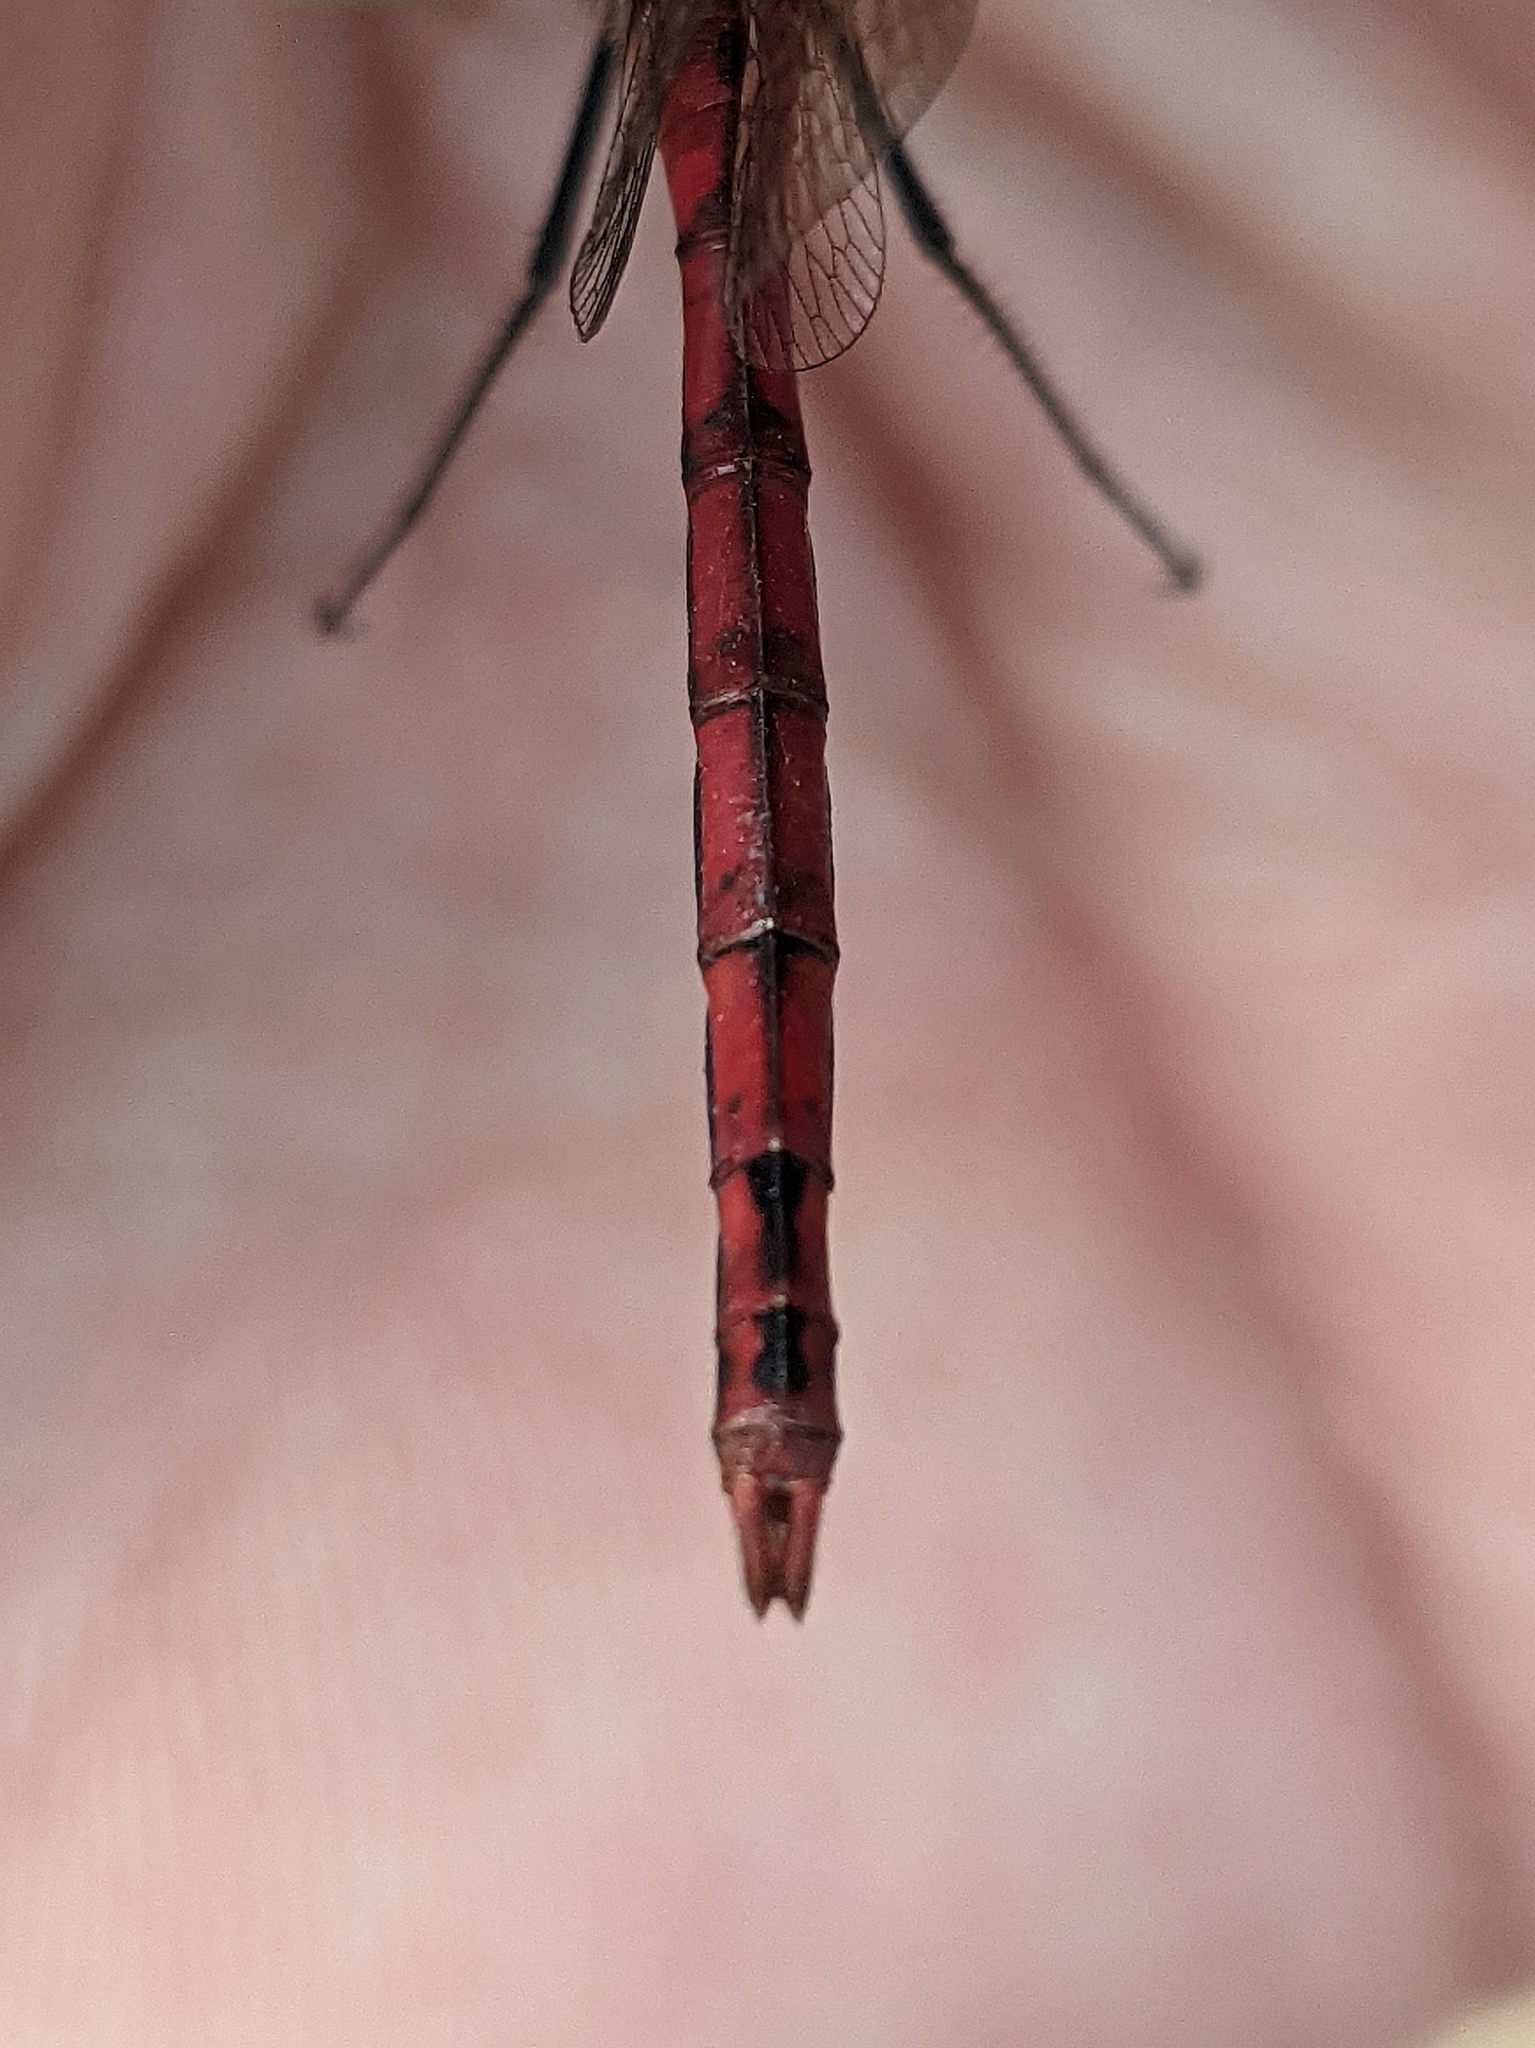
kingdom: Animalia
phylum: Arthropoda
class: Insecta
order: Odonata
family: Libellulidae
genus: Sympetrum
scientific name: Sympetrum costiferum
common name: Saffron-winged meadowhawk
